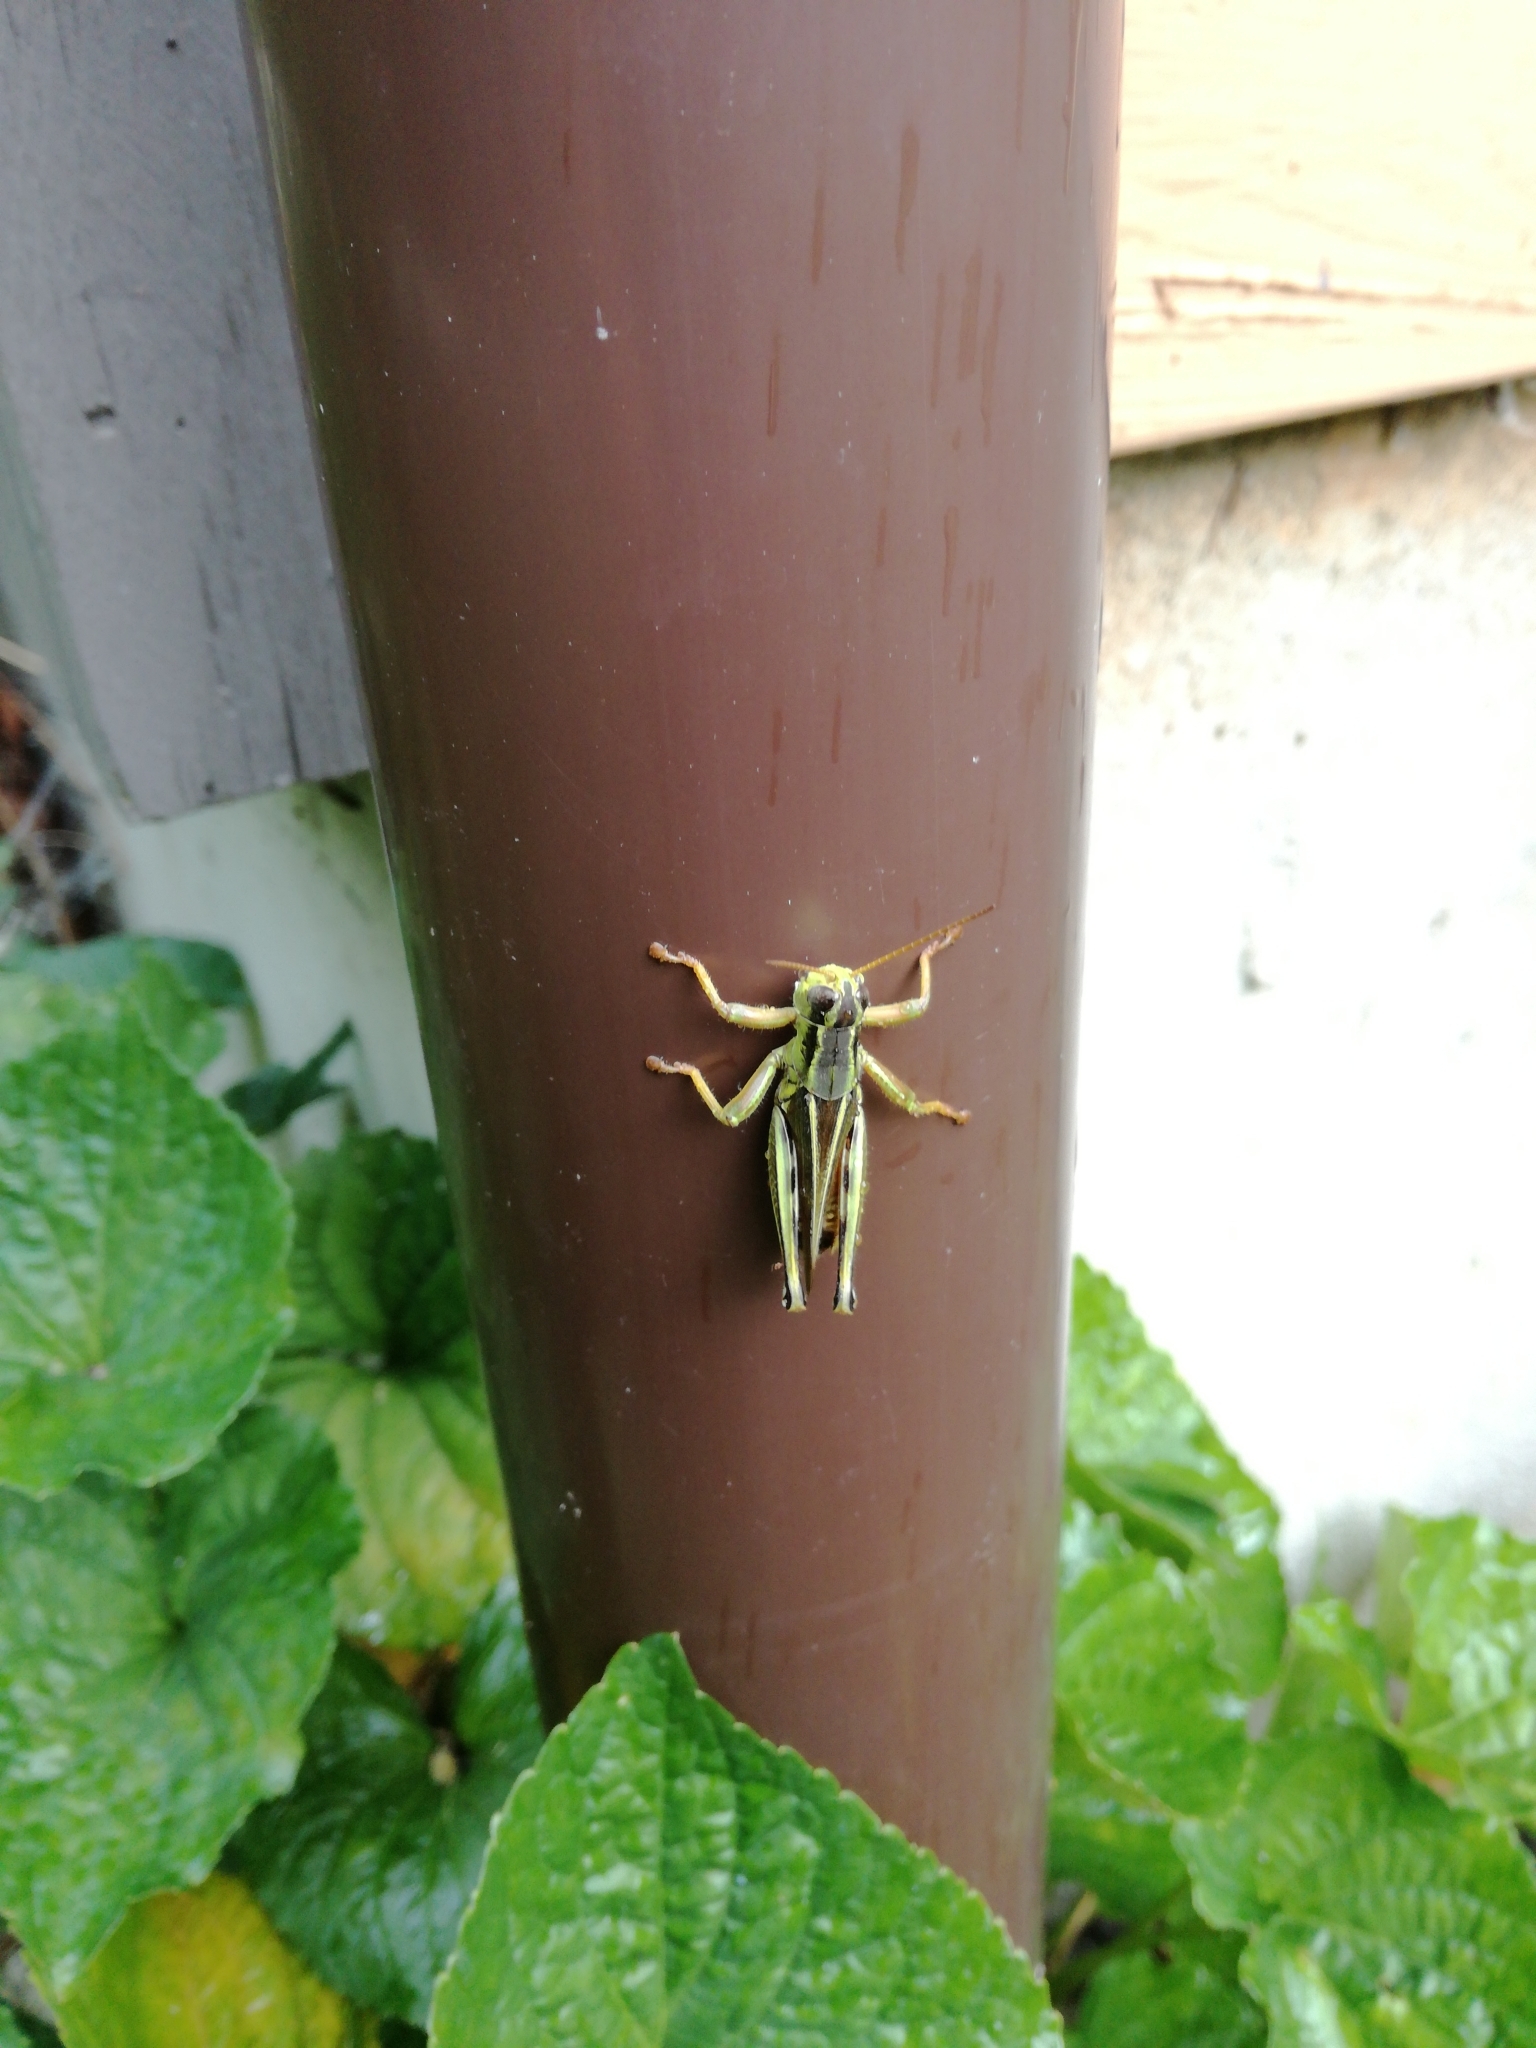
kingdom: Animalia
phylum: Arthropoda
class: Insecta
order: Orthoptera
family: Acrididae
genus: Melanoplus
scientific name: Melanoplus bivittatus
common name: Two-striped grasshopper
